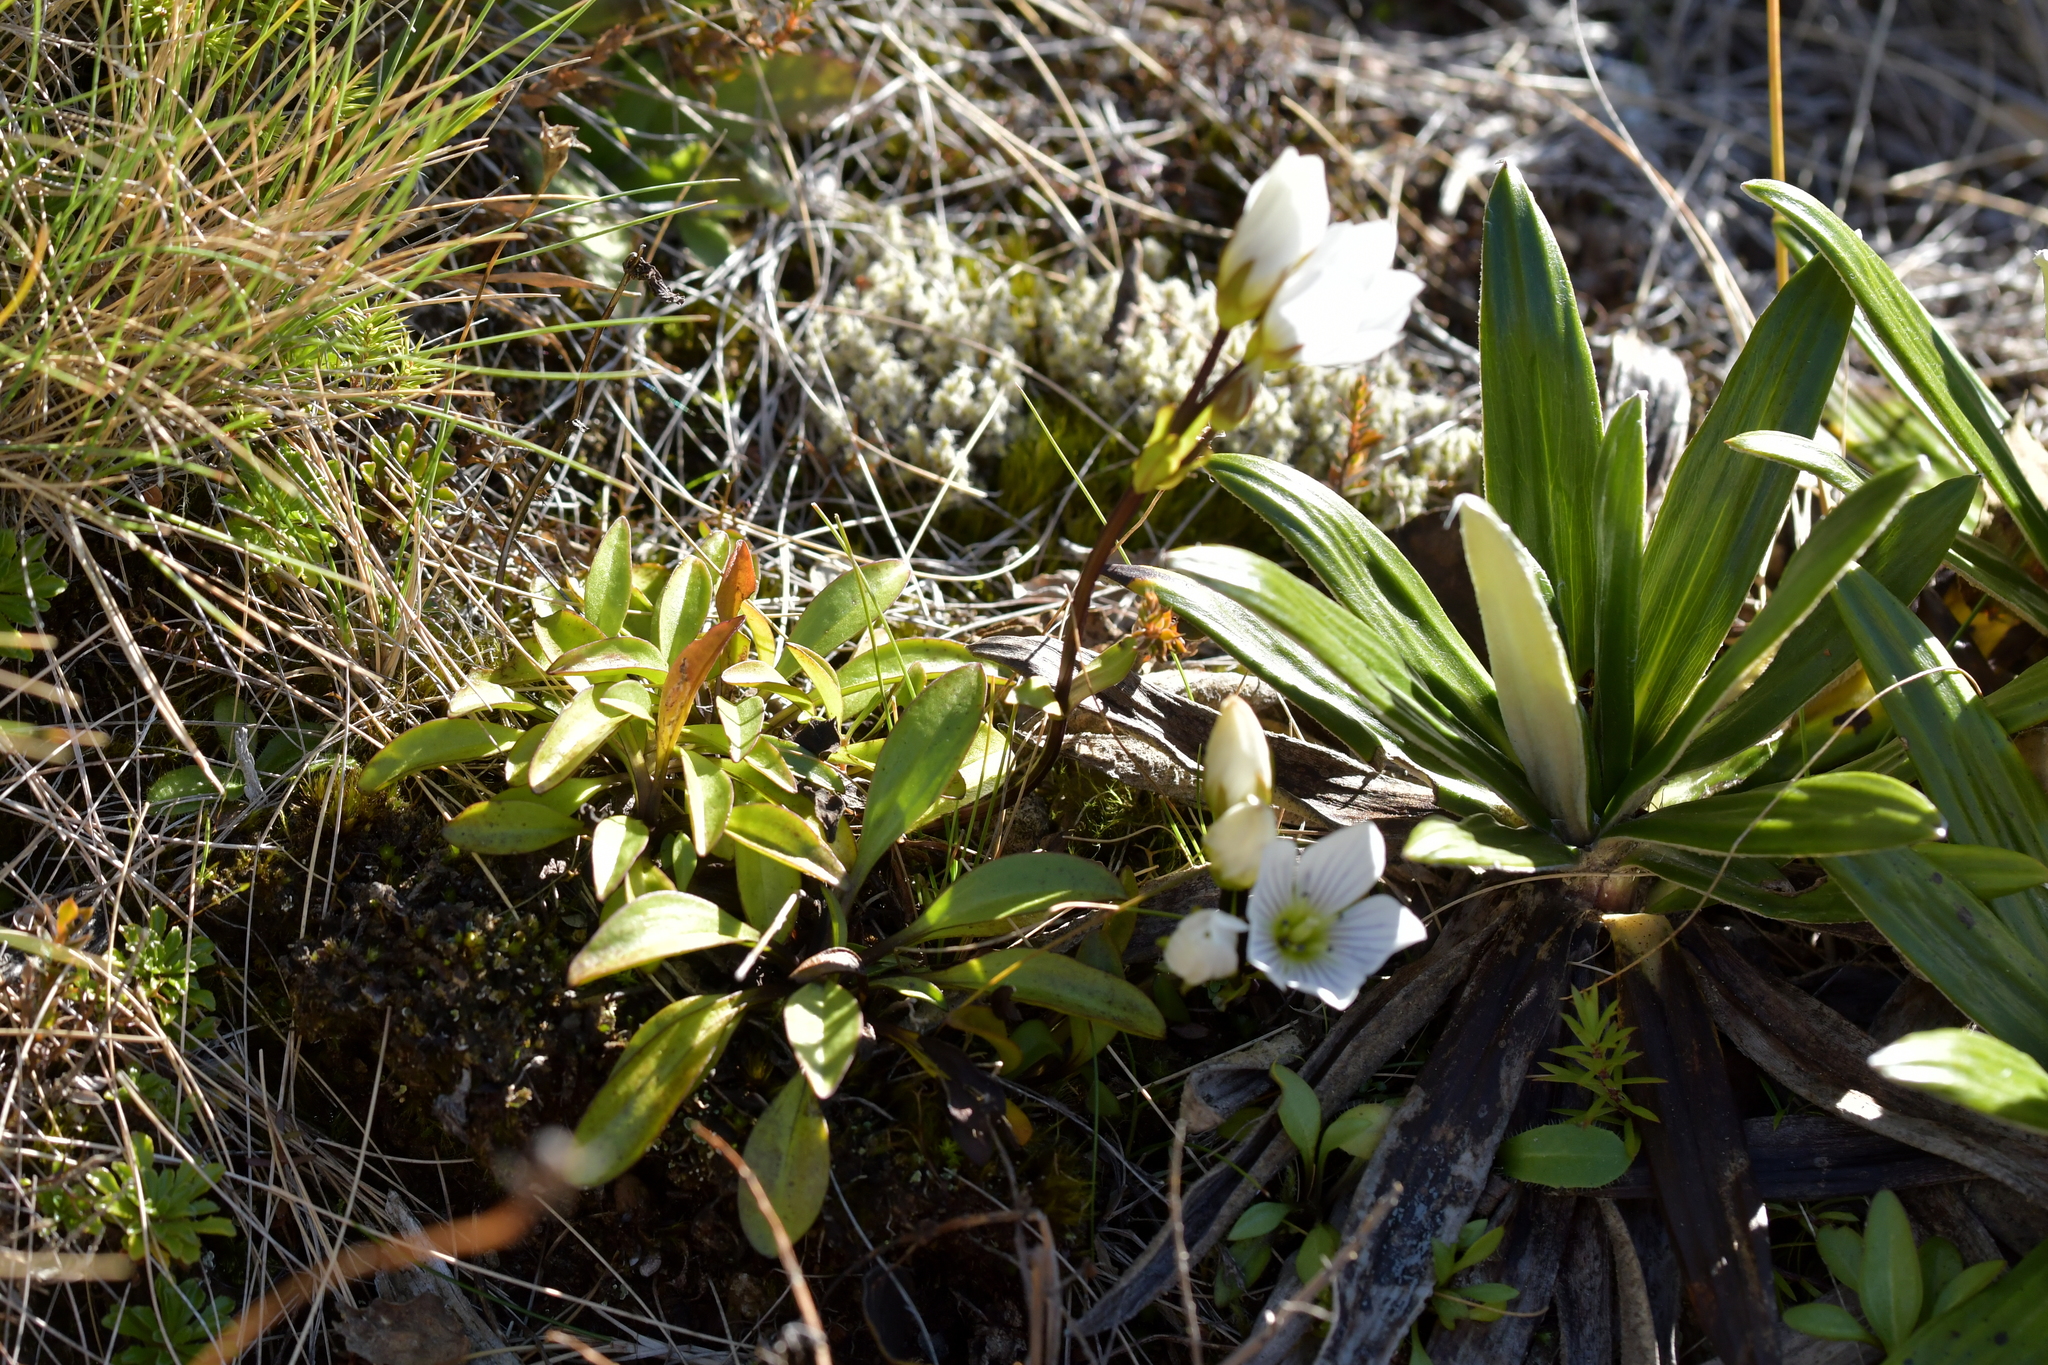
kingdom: Plantae
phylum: Tracheophyta
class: Magnoliopsida
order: Gentianales
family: Gentianaceae
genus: Gentianella
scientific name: Gentianella bellidifolia
